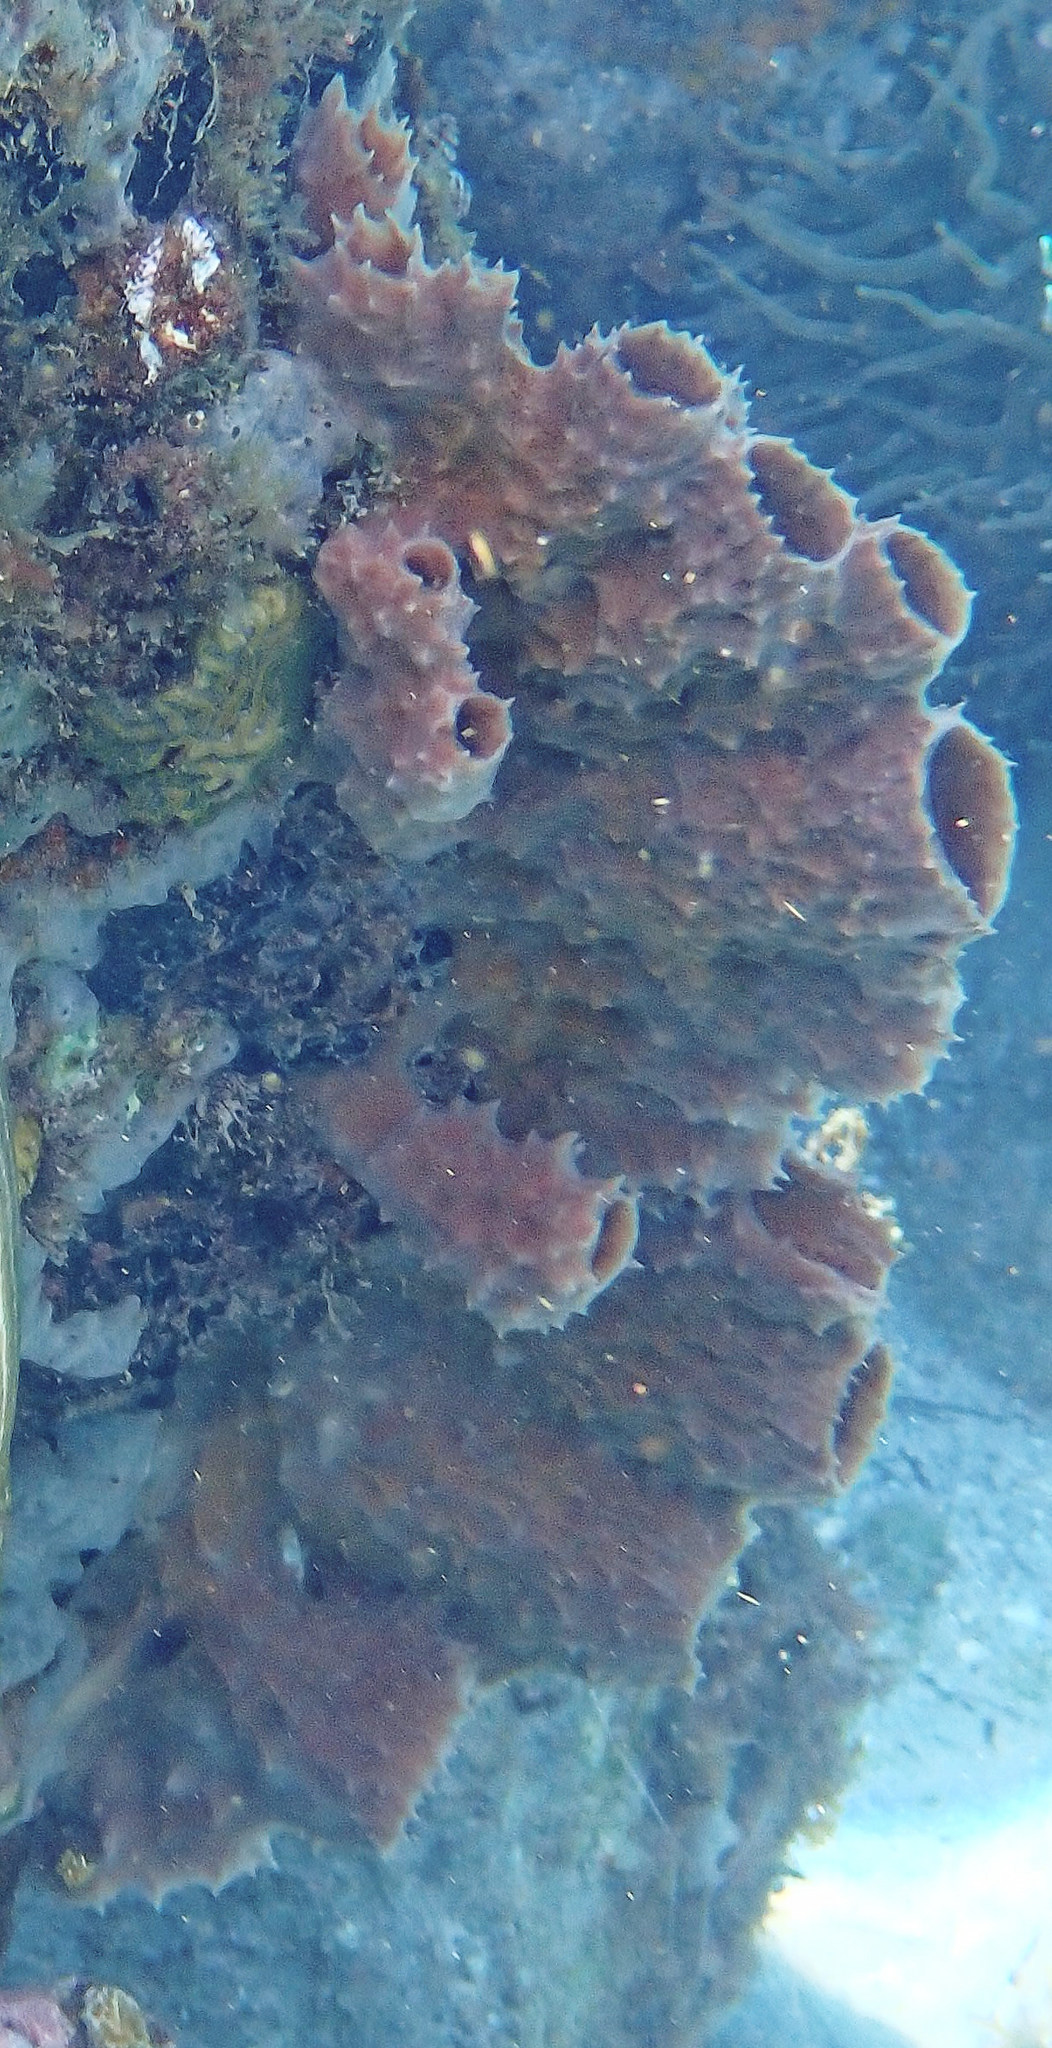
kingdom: Animalia
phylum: Porifera
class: Demospongiae
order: Haplosclerida
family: Callyspongiidae
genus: Callyspongia
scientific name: Callyspongia aculeata
